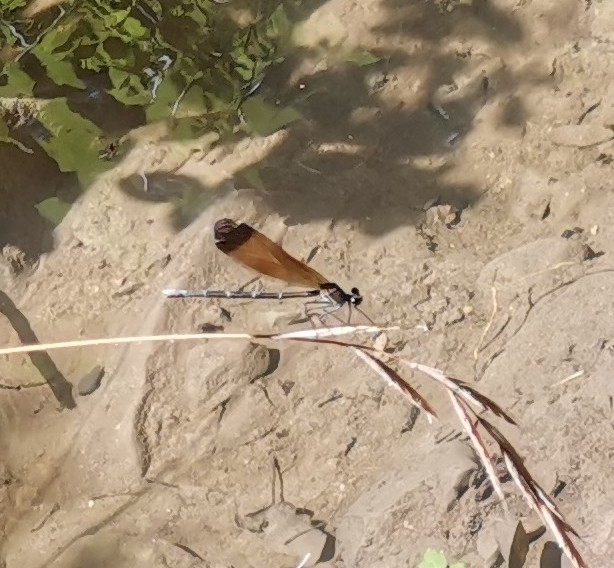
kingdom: Animalia
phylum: Arthropoda
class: Insecta
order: Odonata
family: Calopterygidae
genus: Calopteryx
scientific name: Calopteryx haemorrhoidalis
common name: Copper demoiselle
